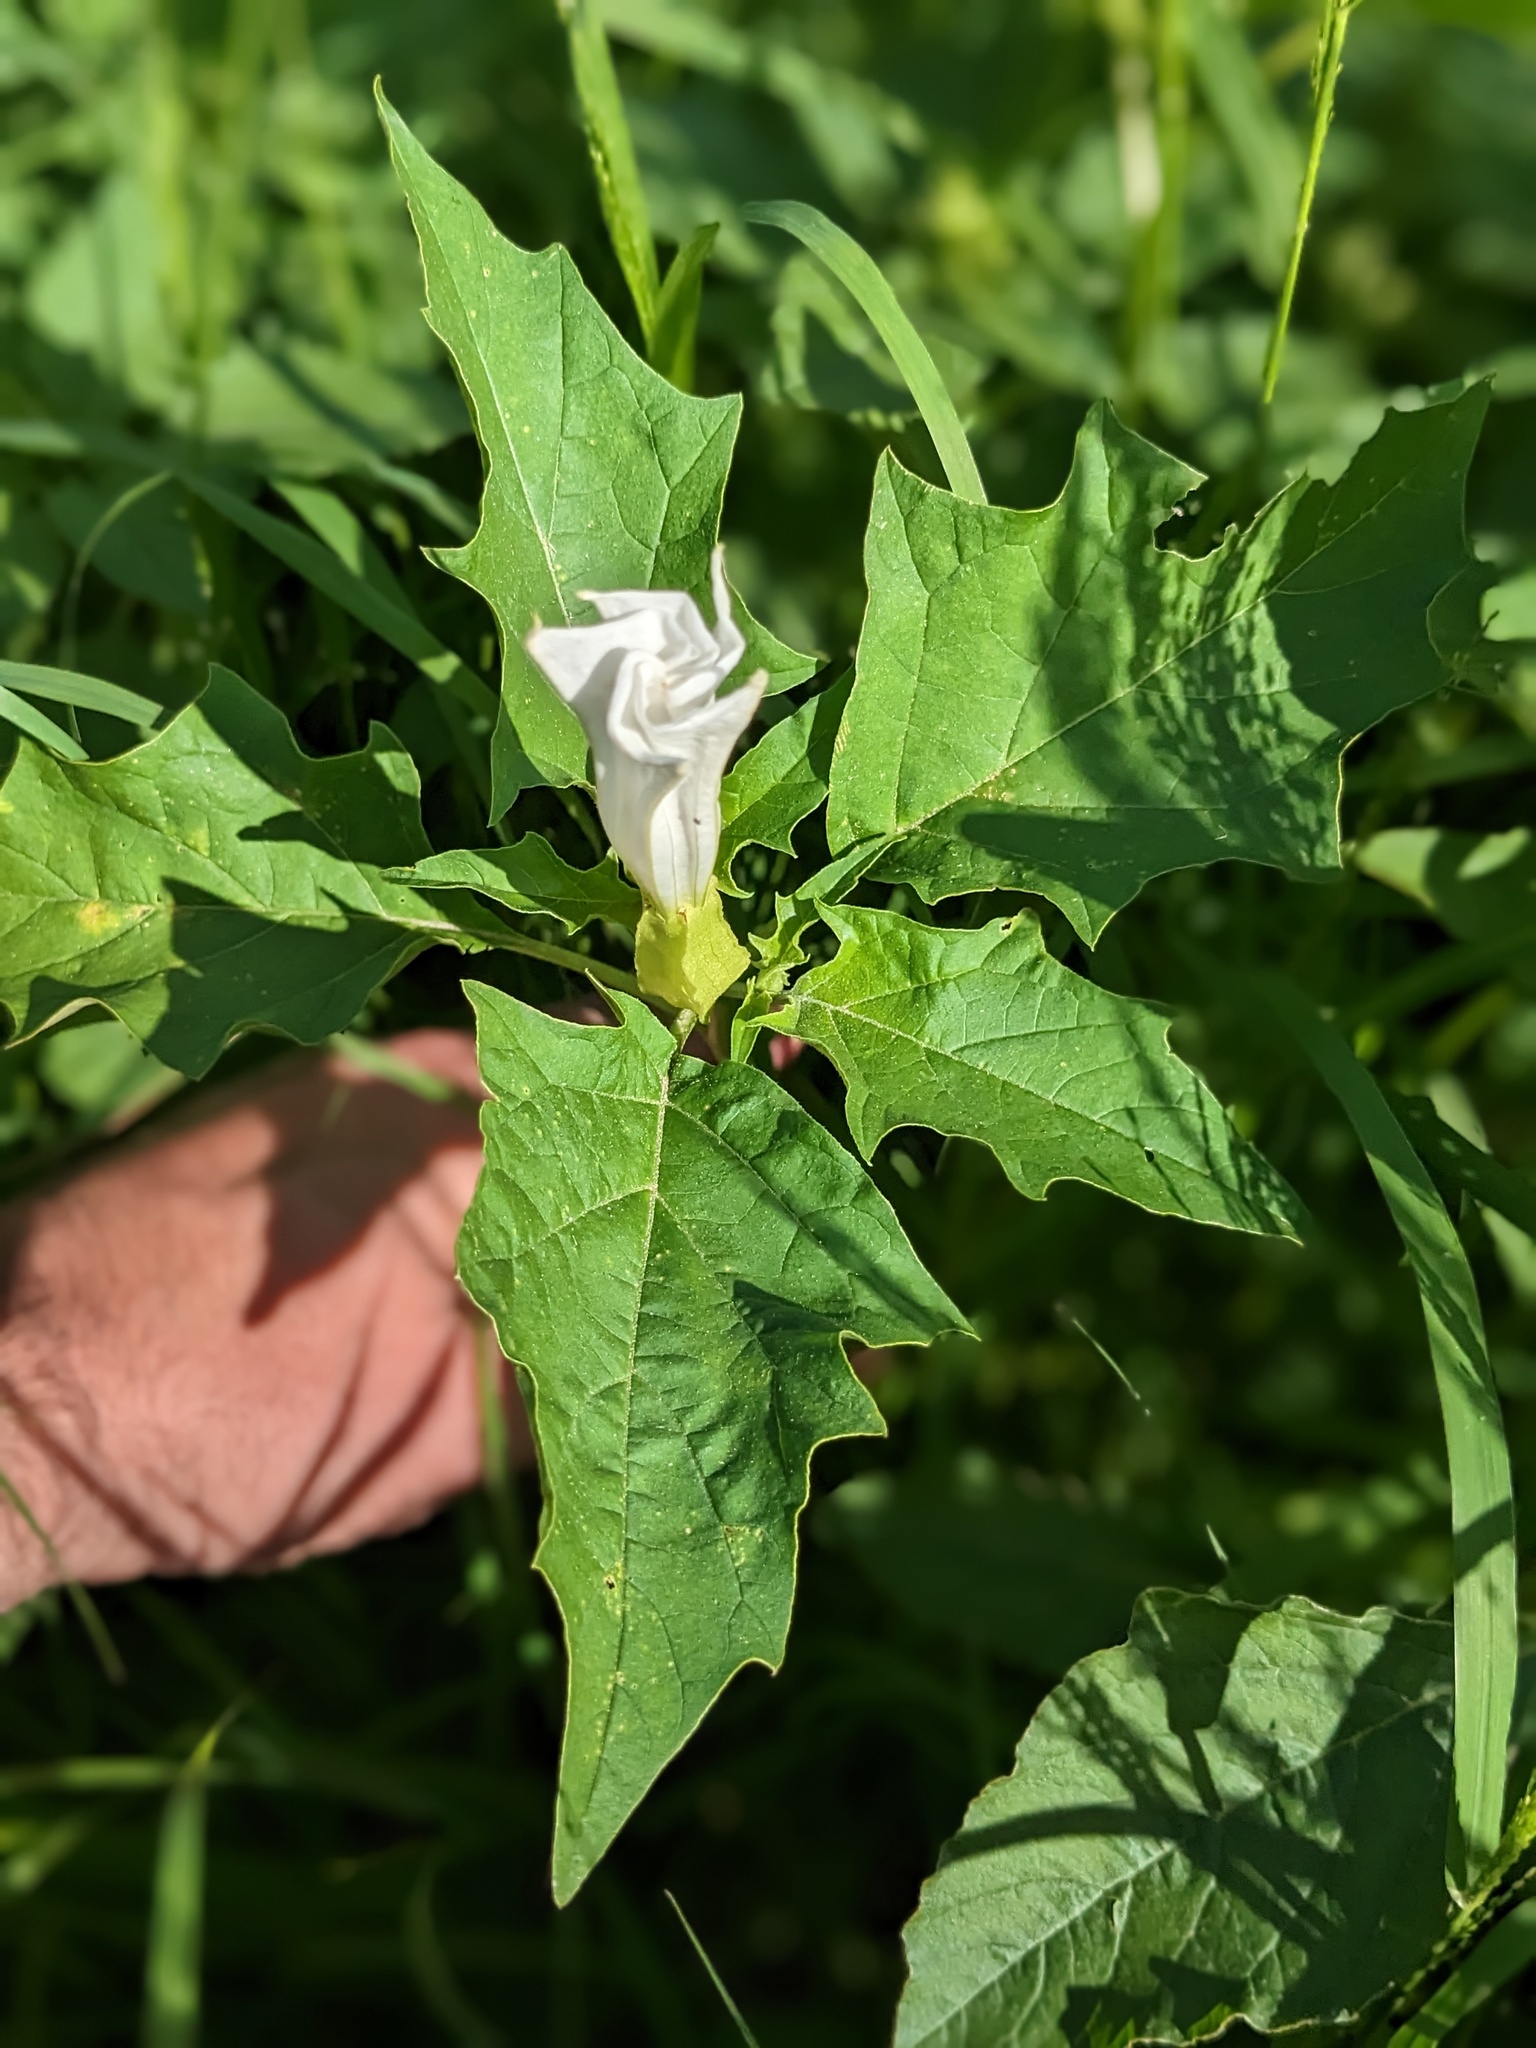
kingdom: Plantae
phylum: Tracheophyta
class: Magnoliopsida
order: Solanales
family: Solanaceae
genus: Datura
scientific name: Datura stramonium
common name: Thorn-apple
